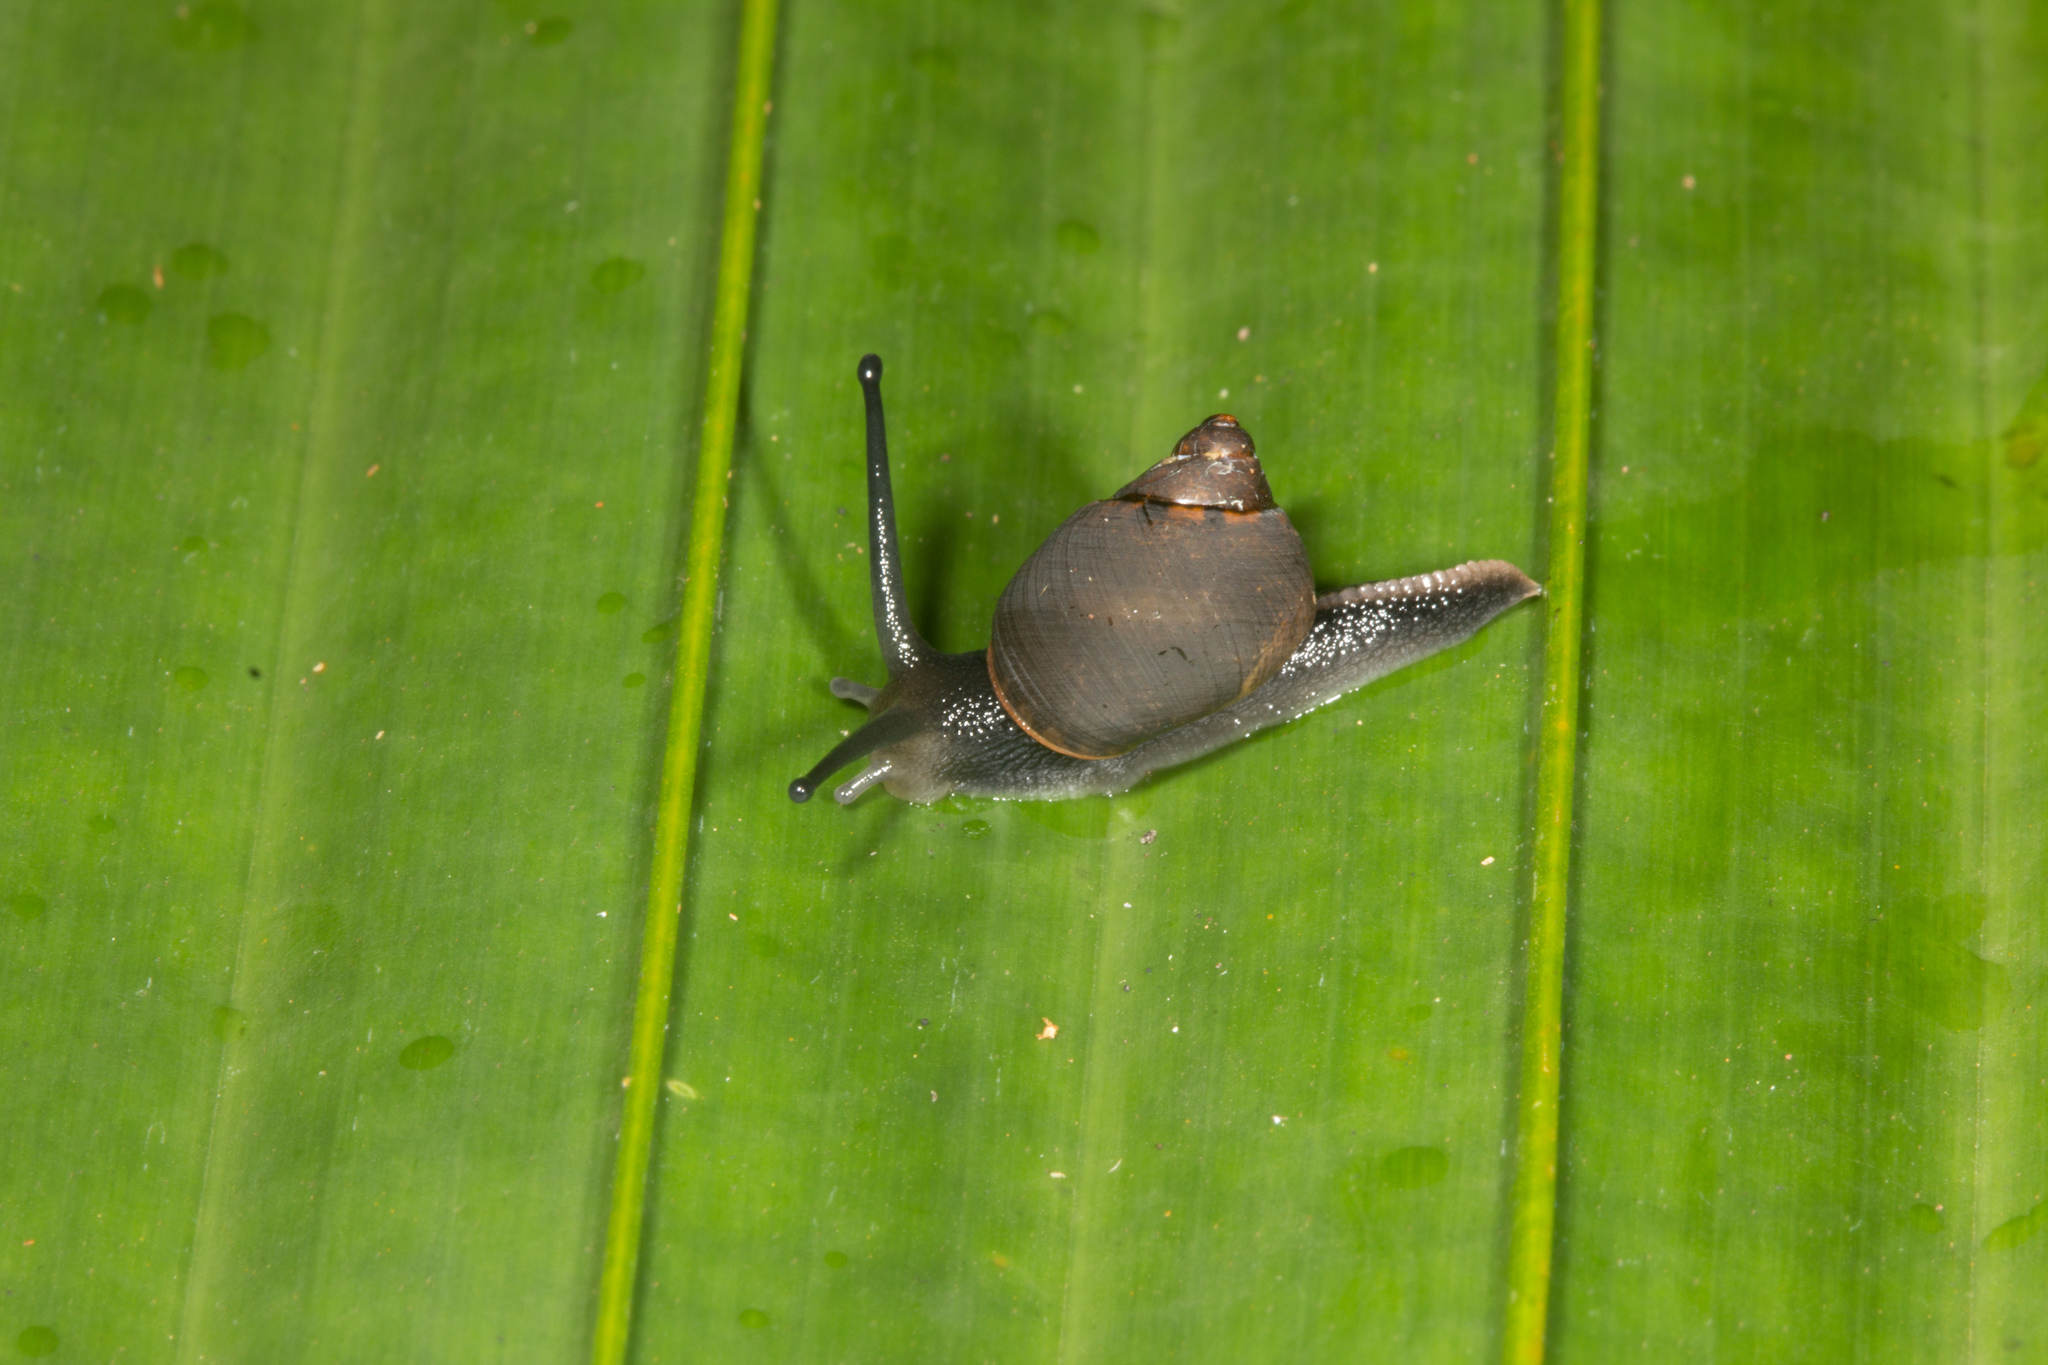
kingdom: Animalia
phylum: Mollusca
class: Gastropoda
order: Stylommatophora
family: Cerastidae
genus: Pachnodus
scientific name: Pachnodus niger
